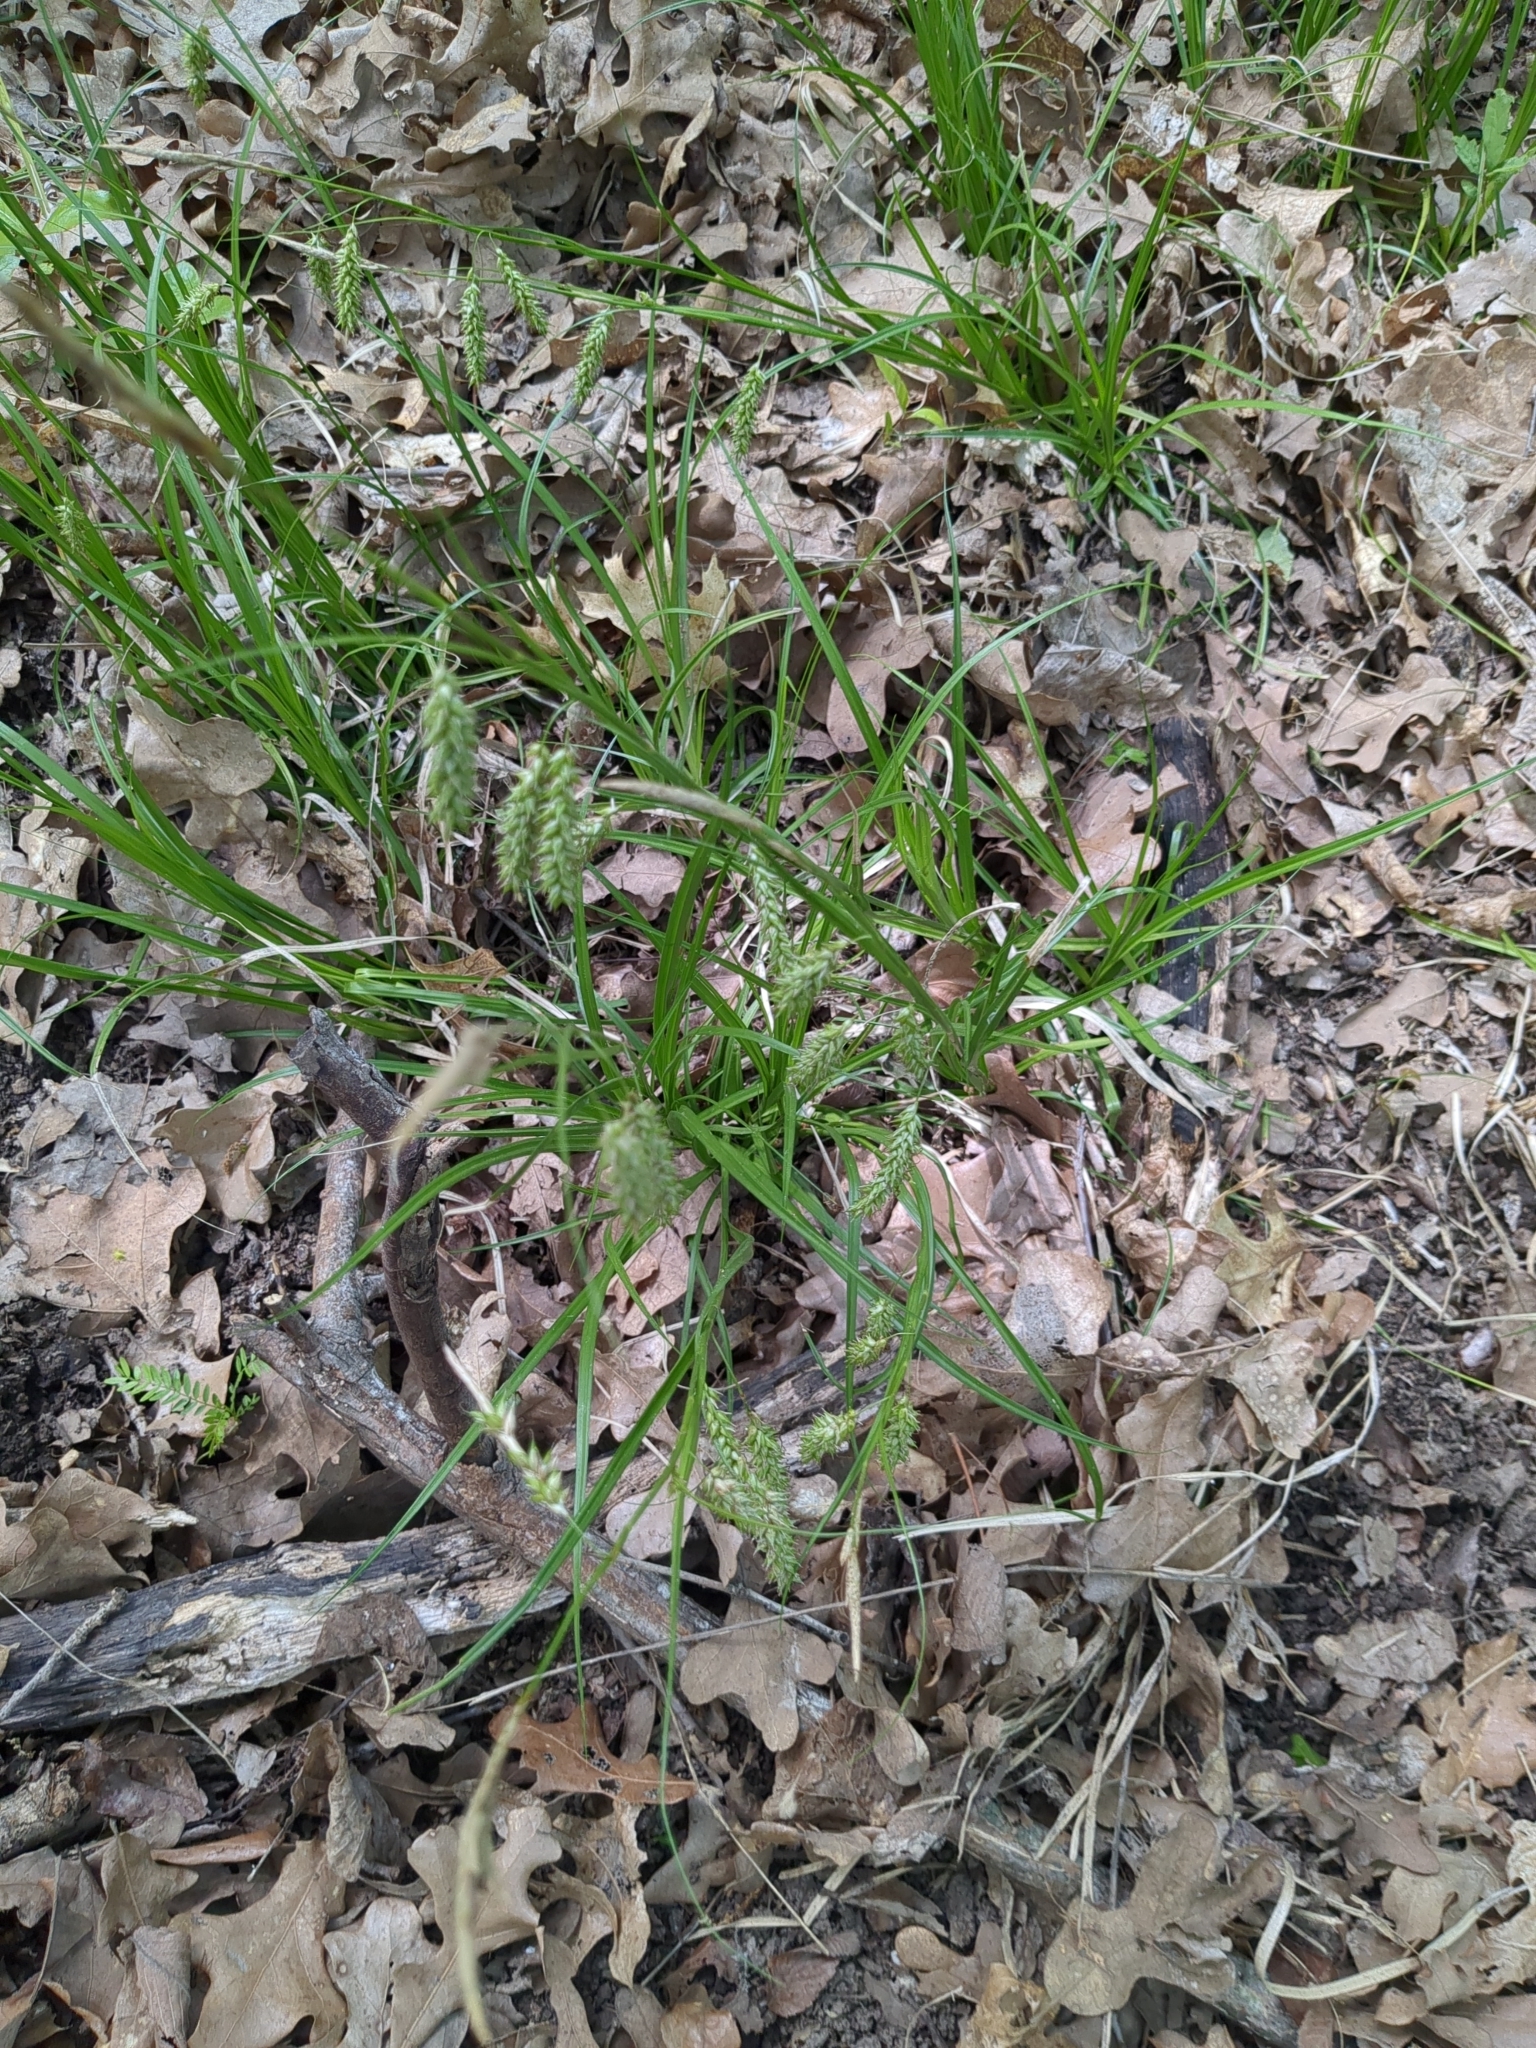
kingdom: Plantae
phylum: Tracheophyta
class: Liliopsida
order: Poales
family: Cyperaceae
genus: Carex
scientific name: Carex cherokeensis
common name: Cherokee sedge
